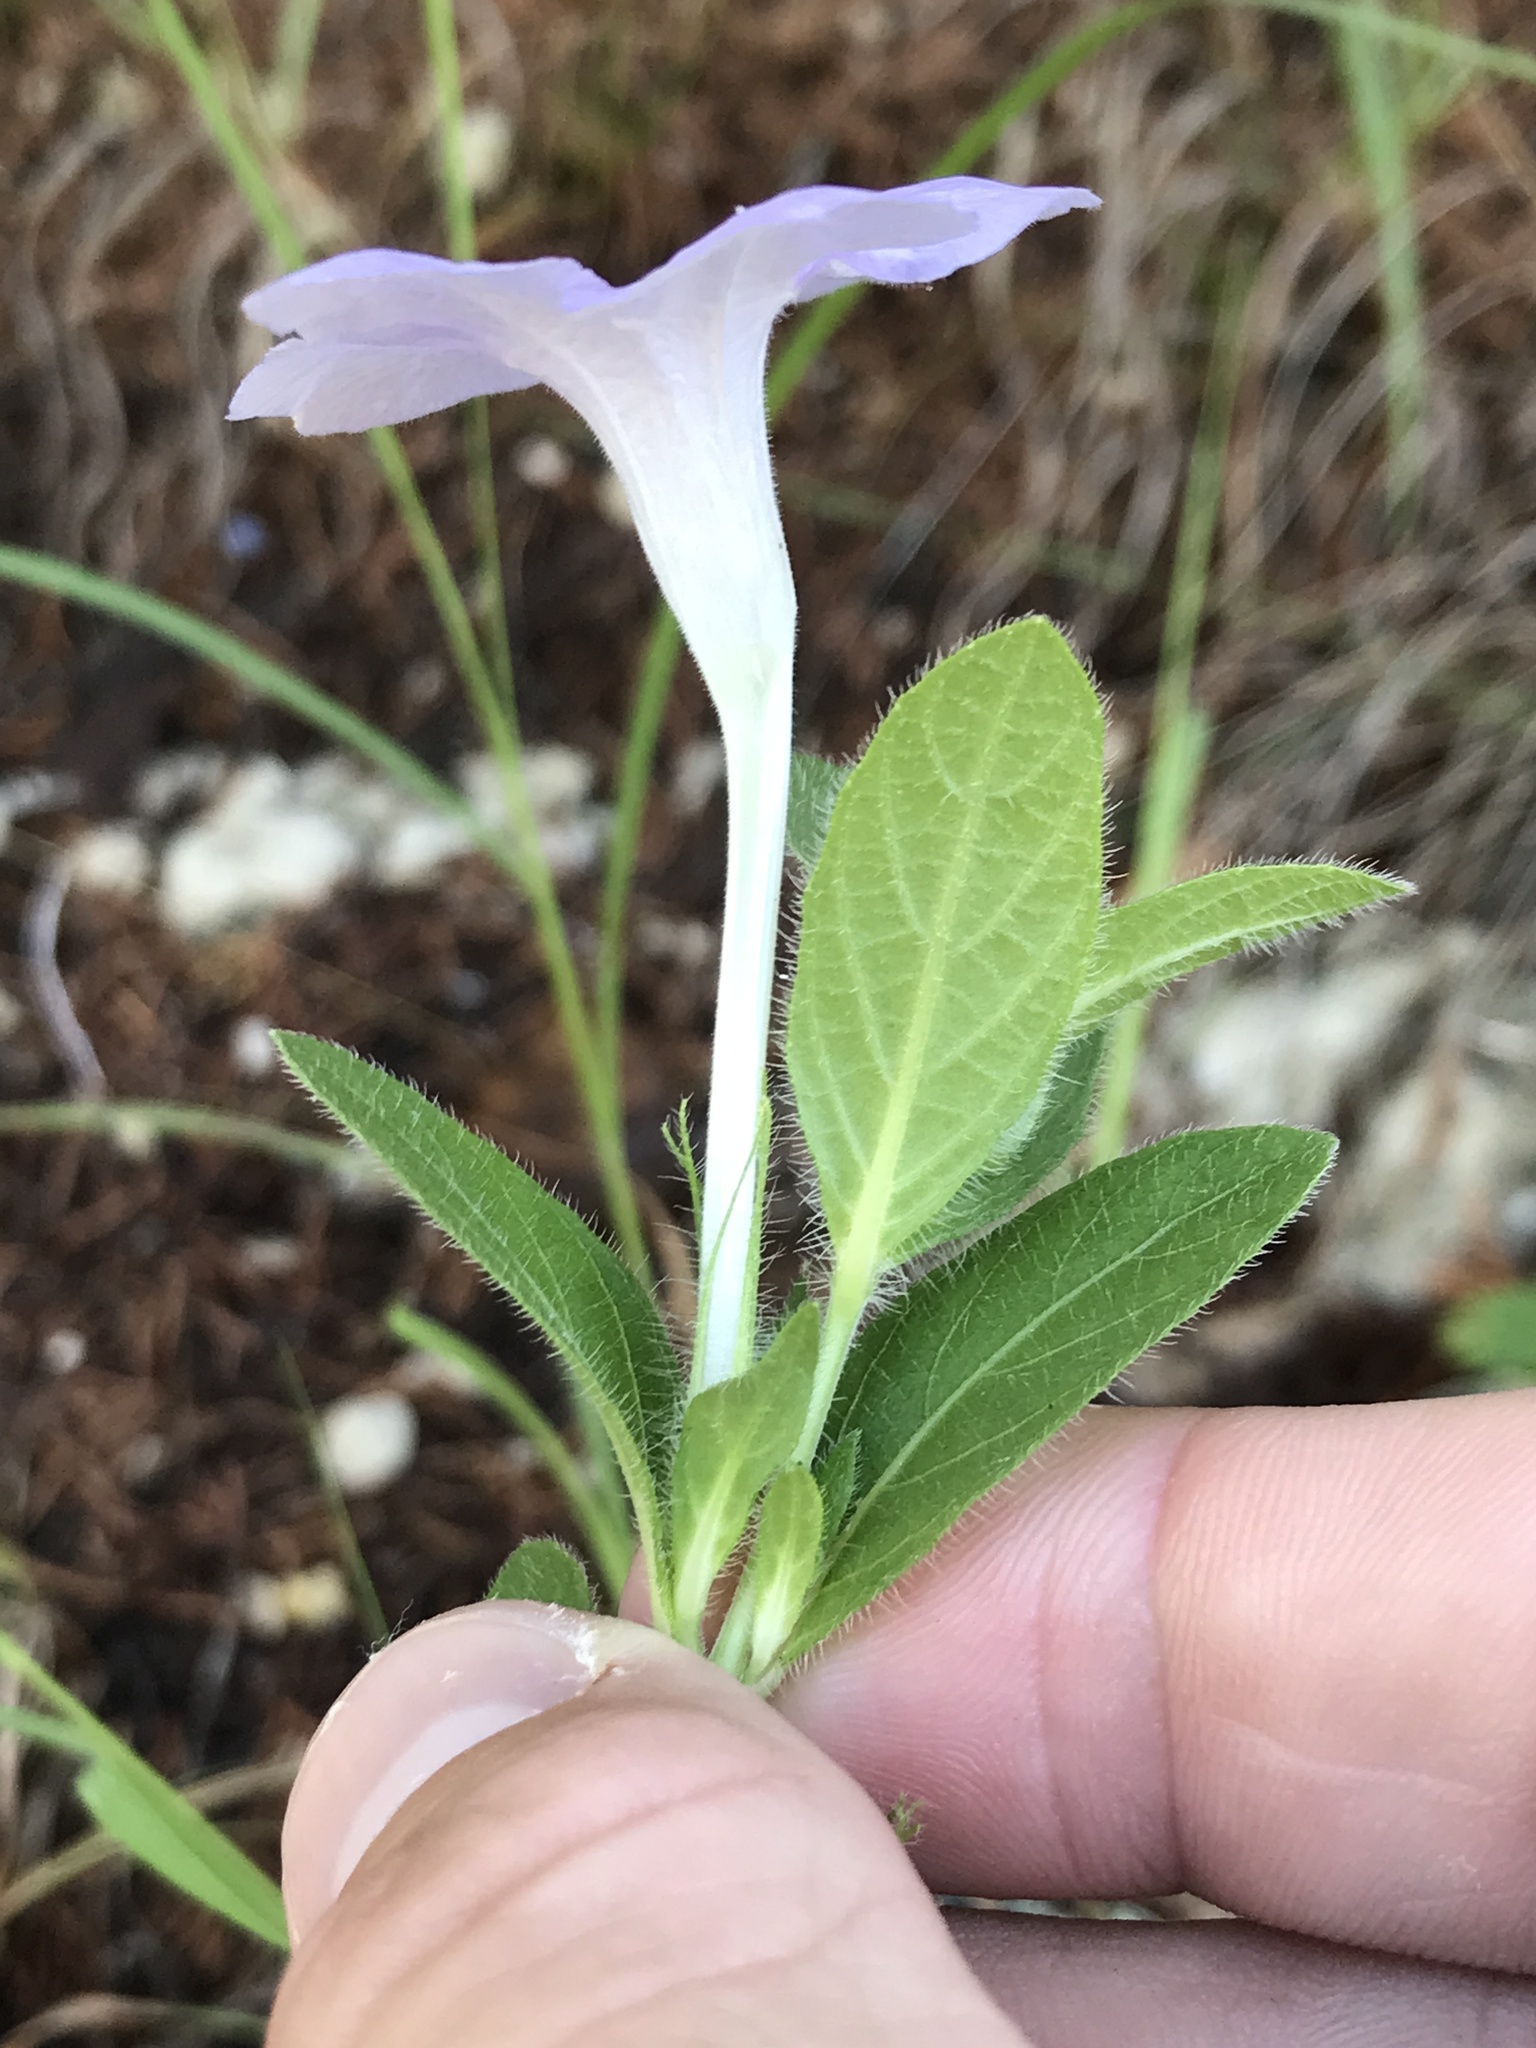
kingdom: Plantae
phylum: Tracheophyta
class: Magnoliopsida
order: Lamiales
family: Acanthaceae
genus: Ruellia
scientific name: Ruellia humilis
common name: Fringe-leaf ruellia
